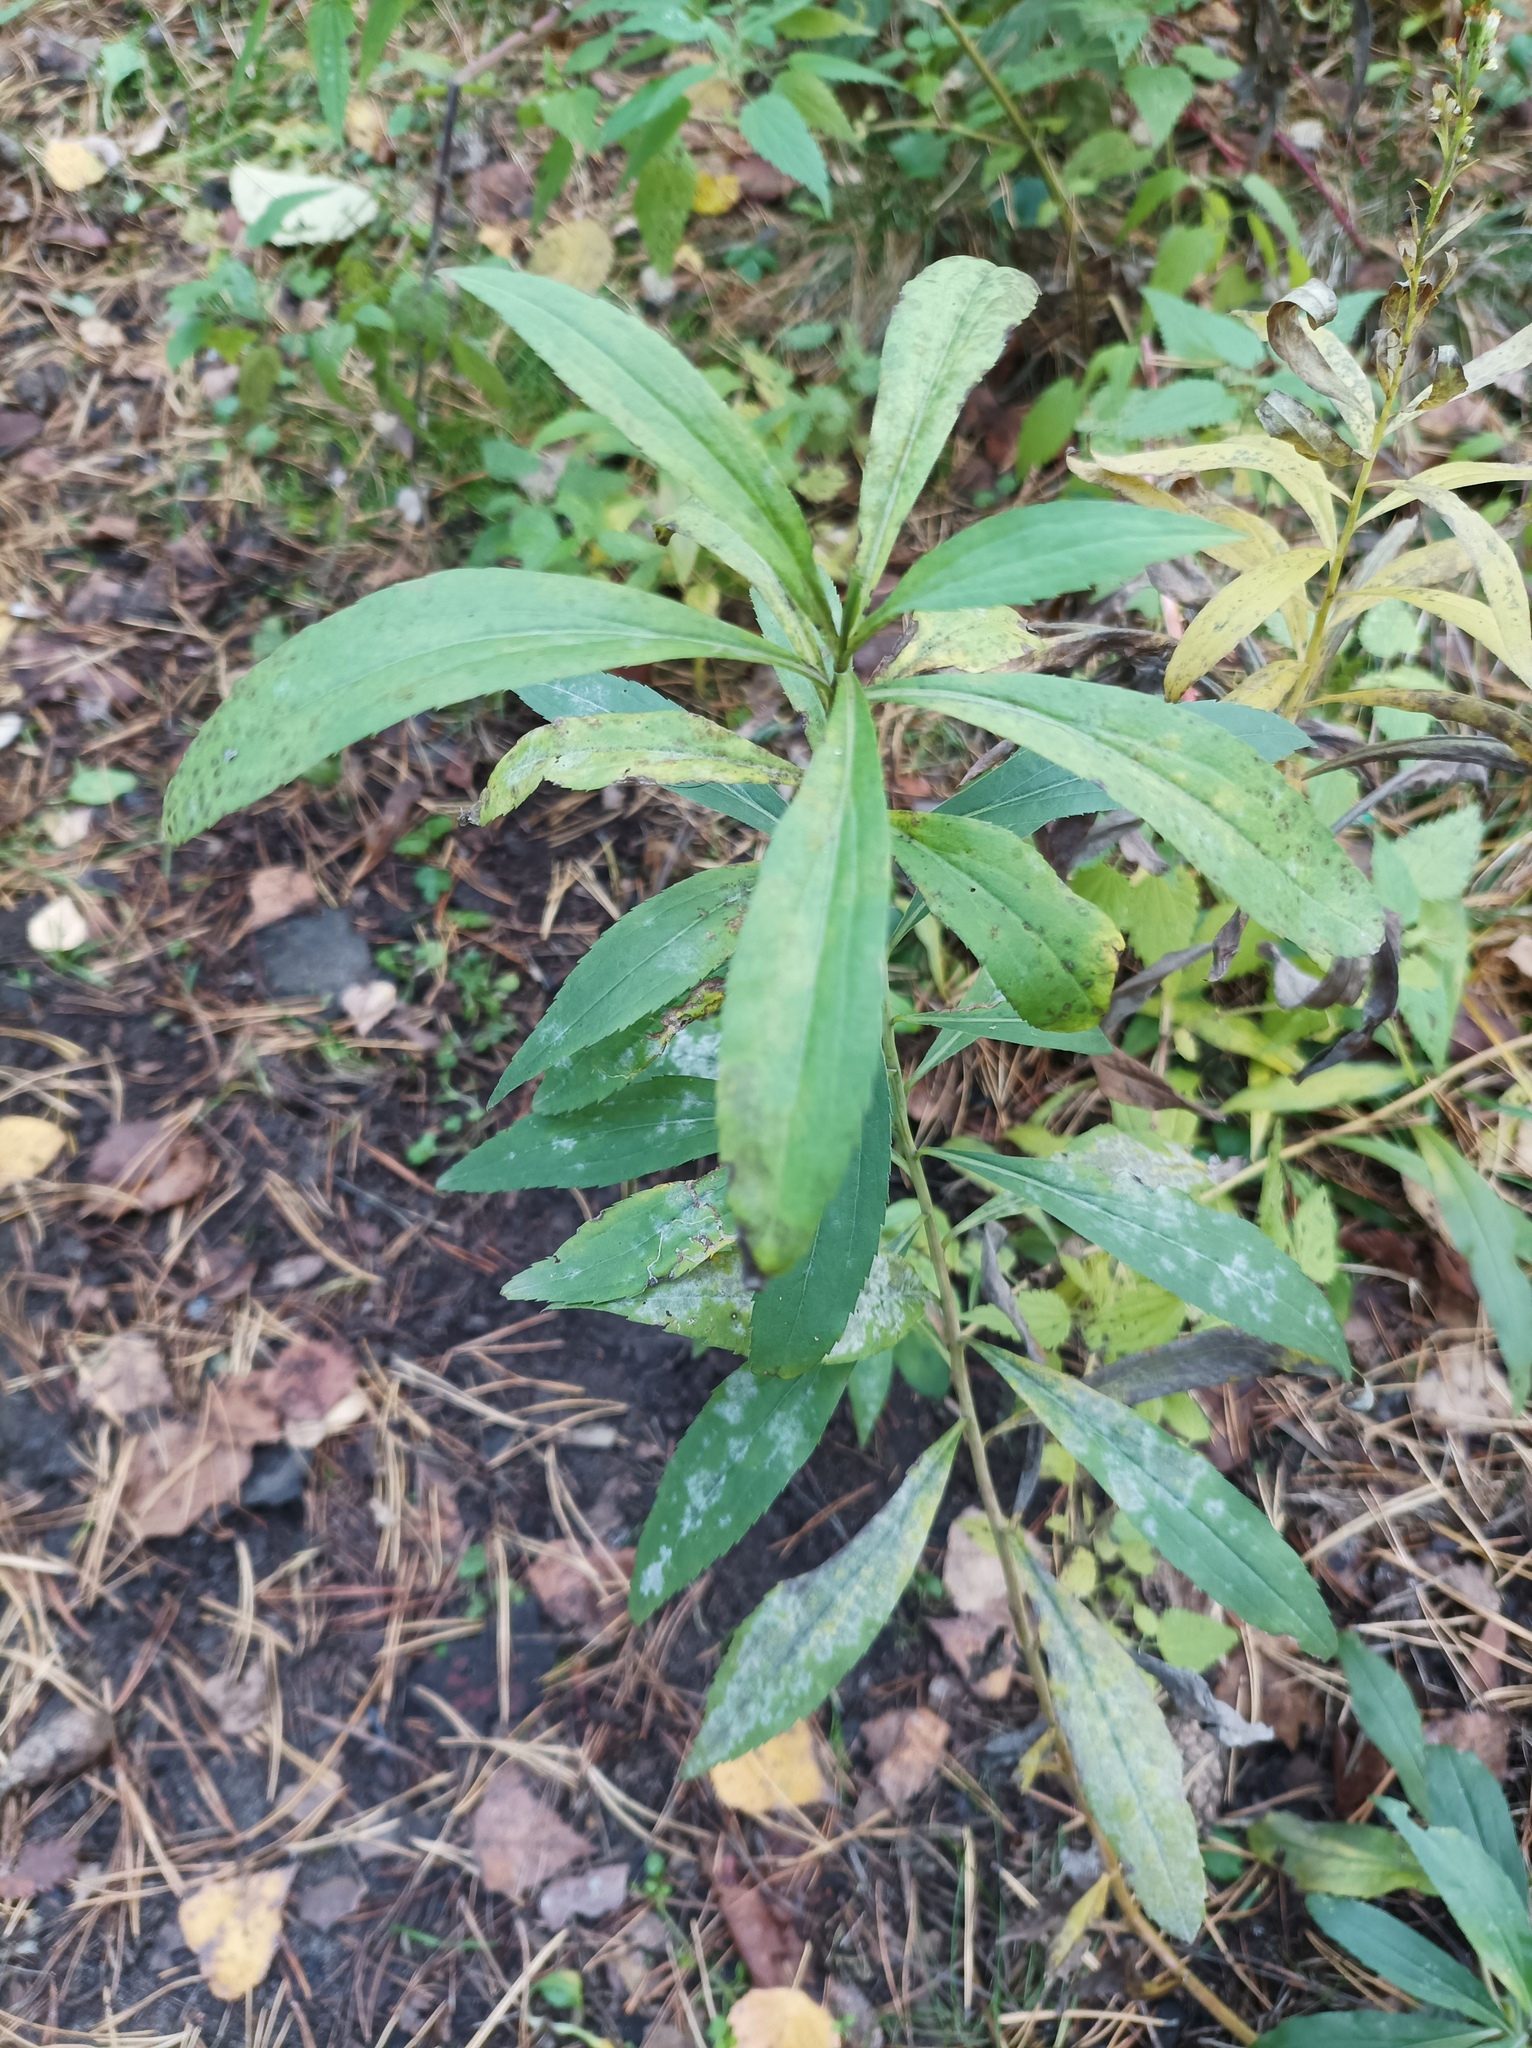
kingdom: Plantae
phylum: Tracheophyta
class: Magnoliopsida
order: Asterales
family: Asteraceae
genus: Solidago
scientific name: Solidago gigantea
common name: Giant goldenrod
